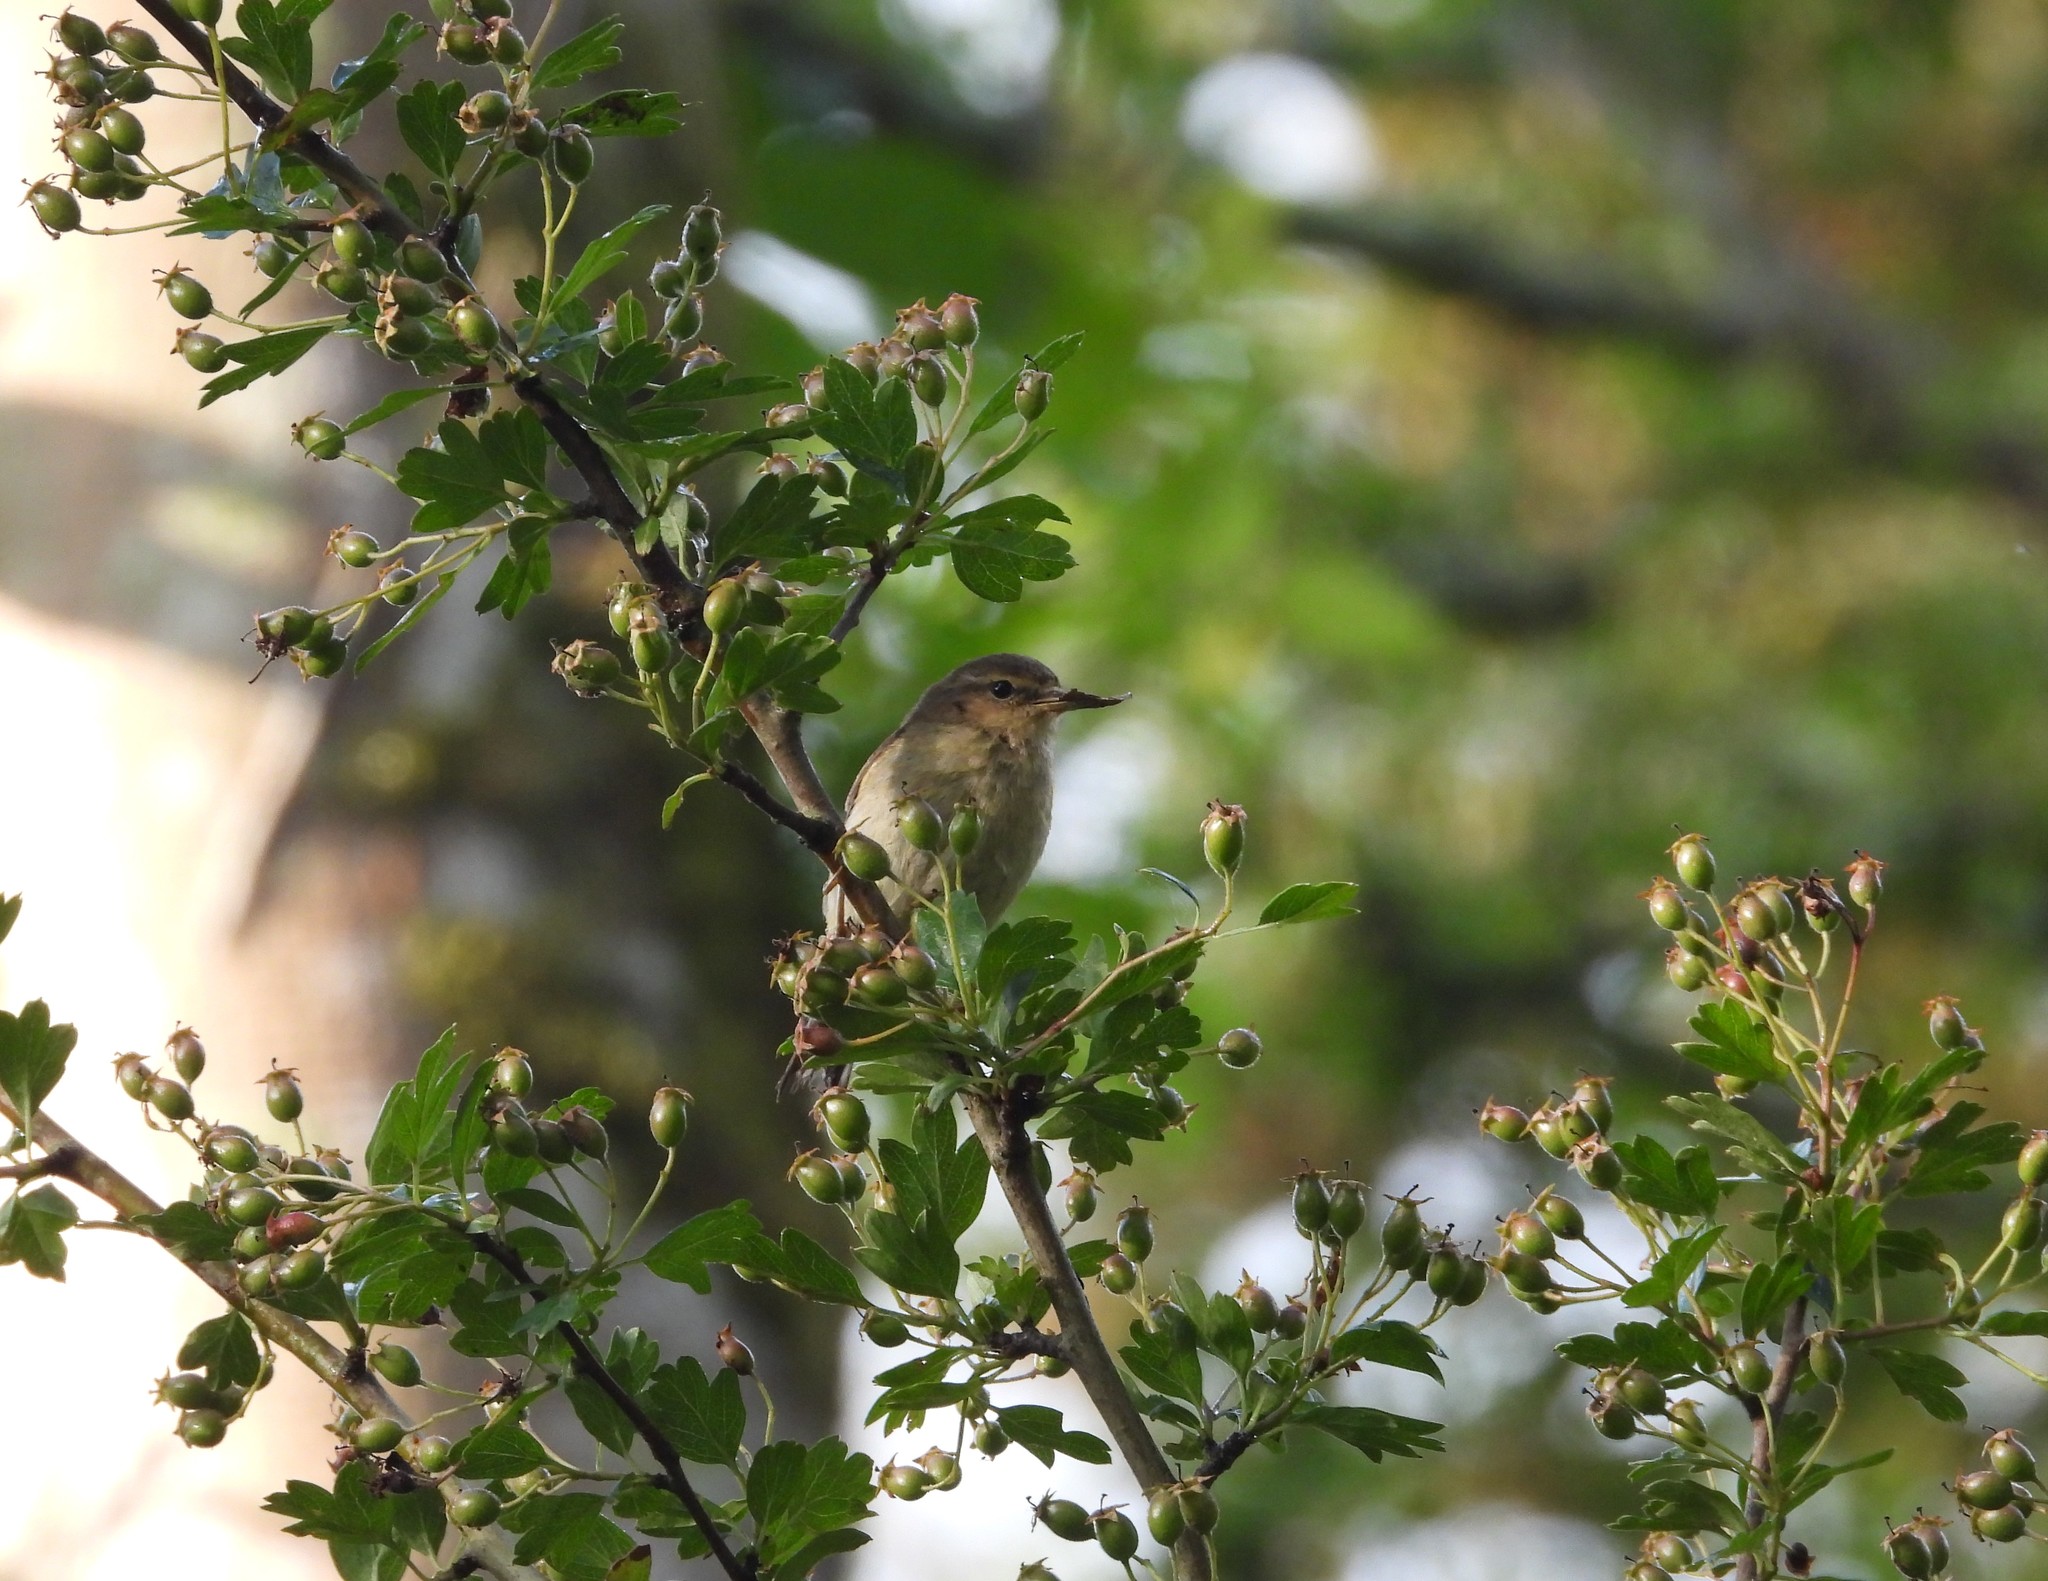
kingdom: Animalia
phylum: Chordata
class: Aves
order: Passeriformes
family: Phylloscopidae
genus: Phylloscopus
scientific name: Phylloscopus collybita
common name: Common chiffchaff
